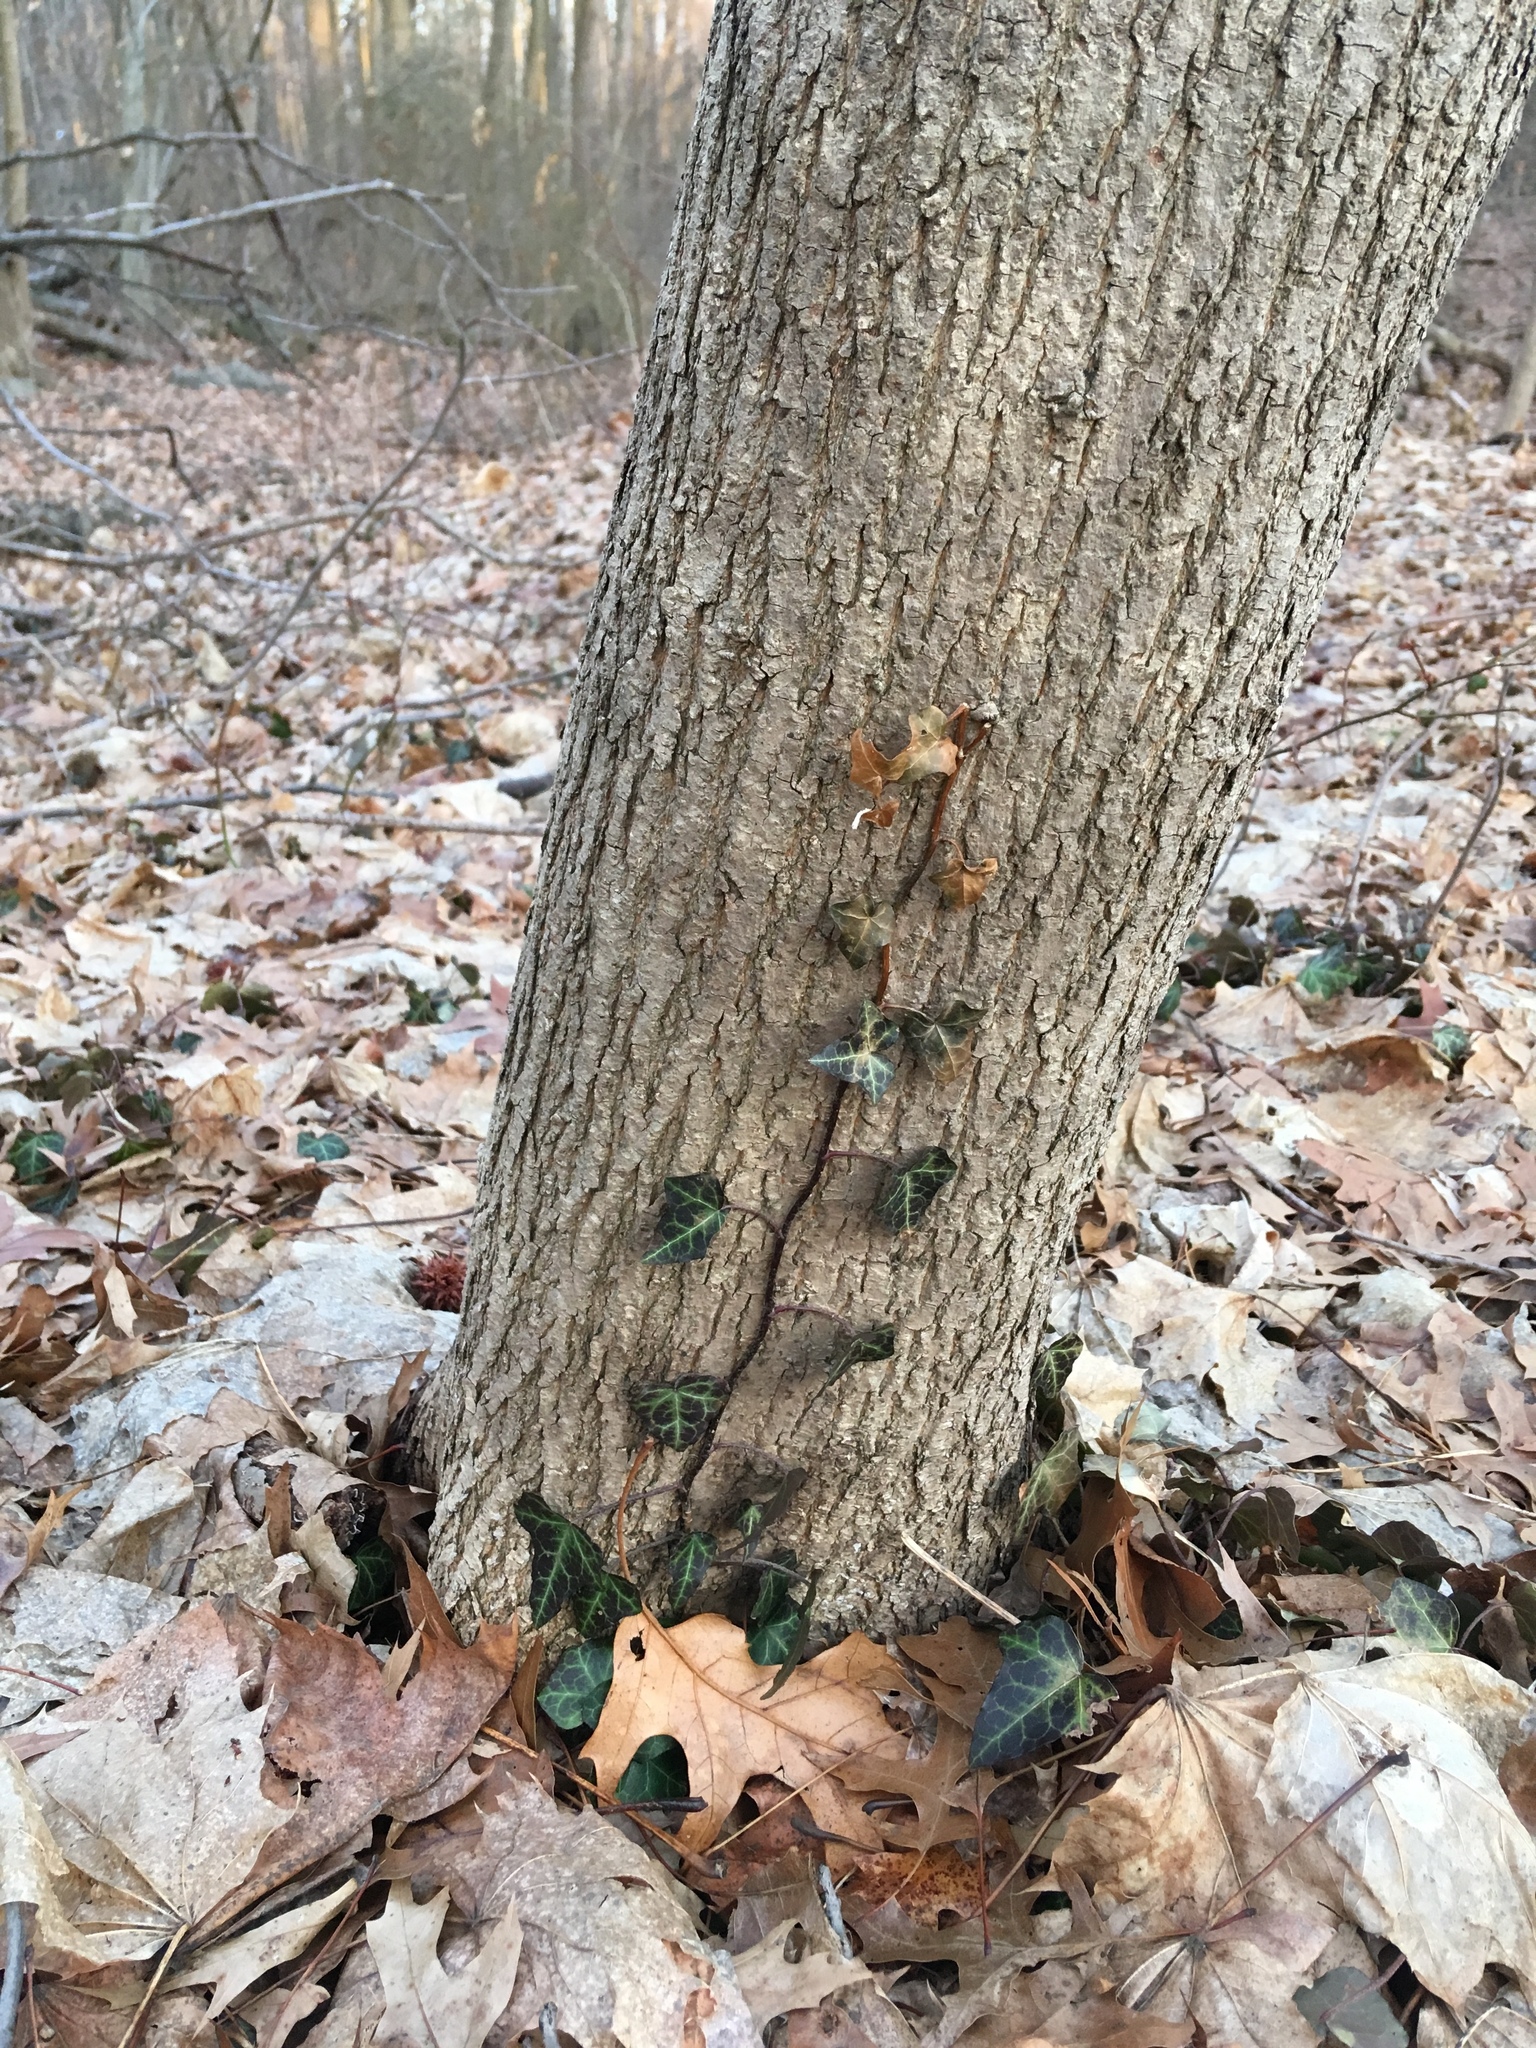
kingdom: Plantae
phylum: Tracheophyta
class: Magnoliopsida
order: Apiales
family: Araliaceae
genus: Hedera
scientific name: Hedera helix
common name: Ivy
